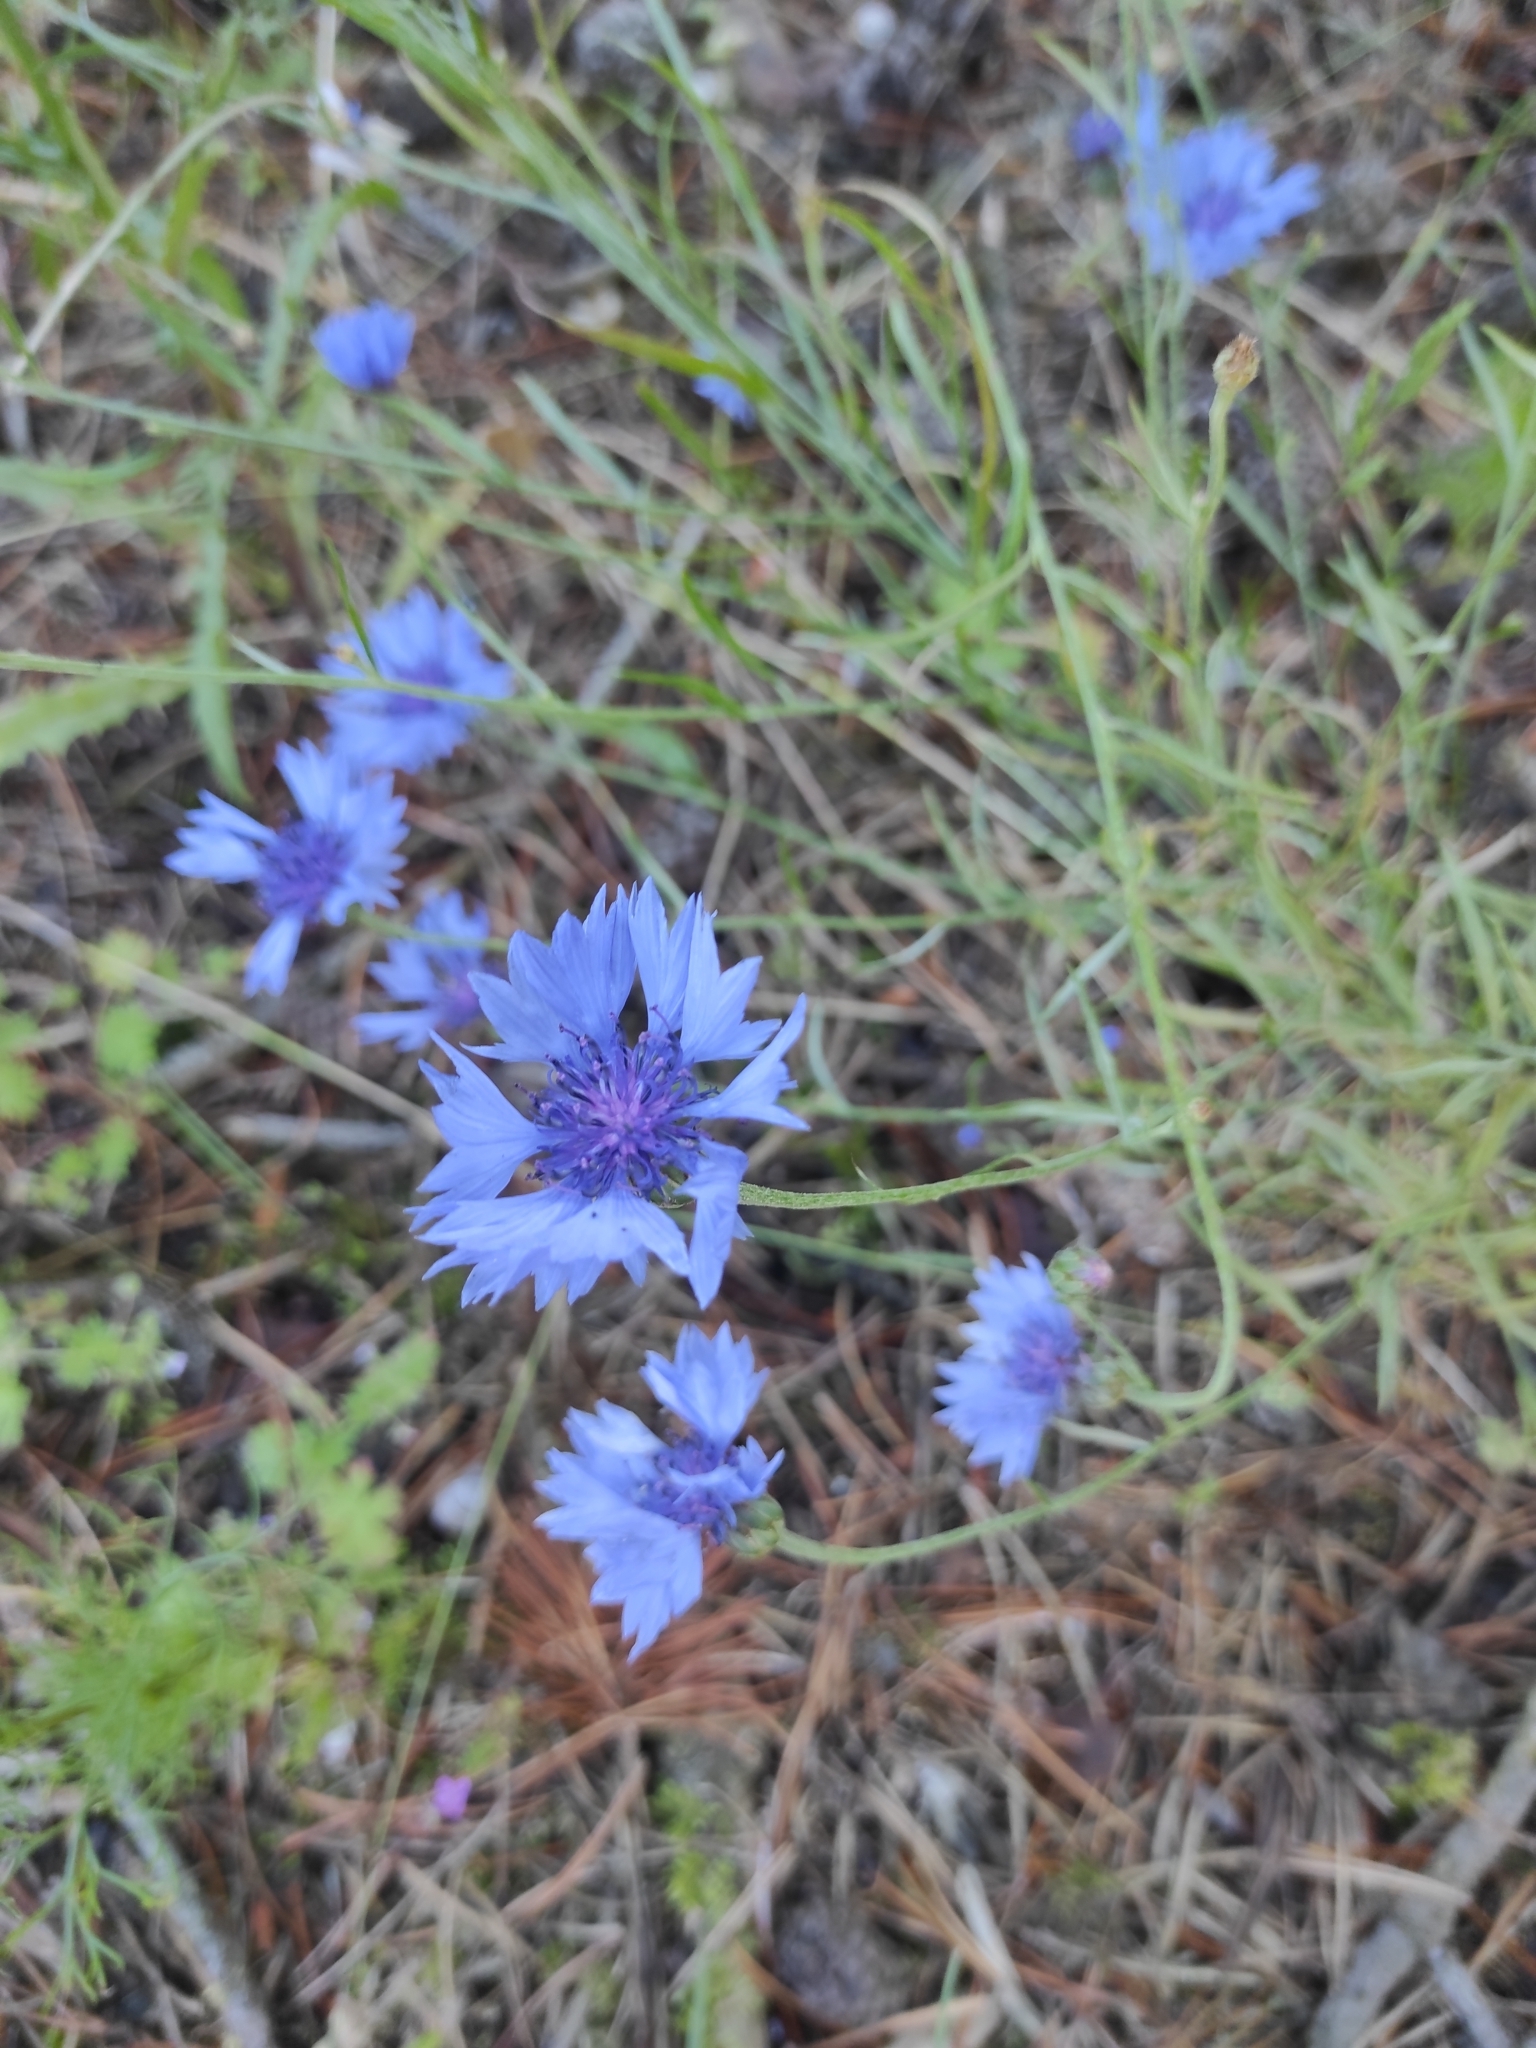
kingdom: Plantae
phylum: Tracheophyta
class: Magnoliopsida
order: Asterales
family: Asteraceae
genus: Centaurea
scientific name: Centaurea cyanus
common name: Cornflower
